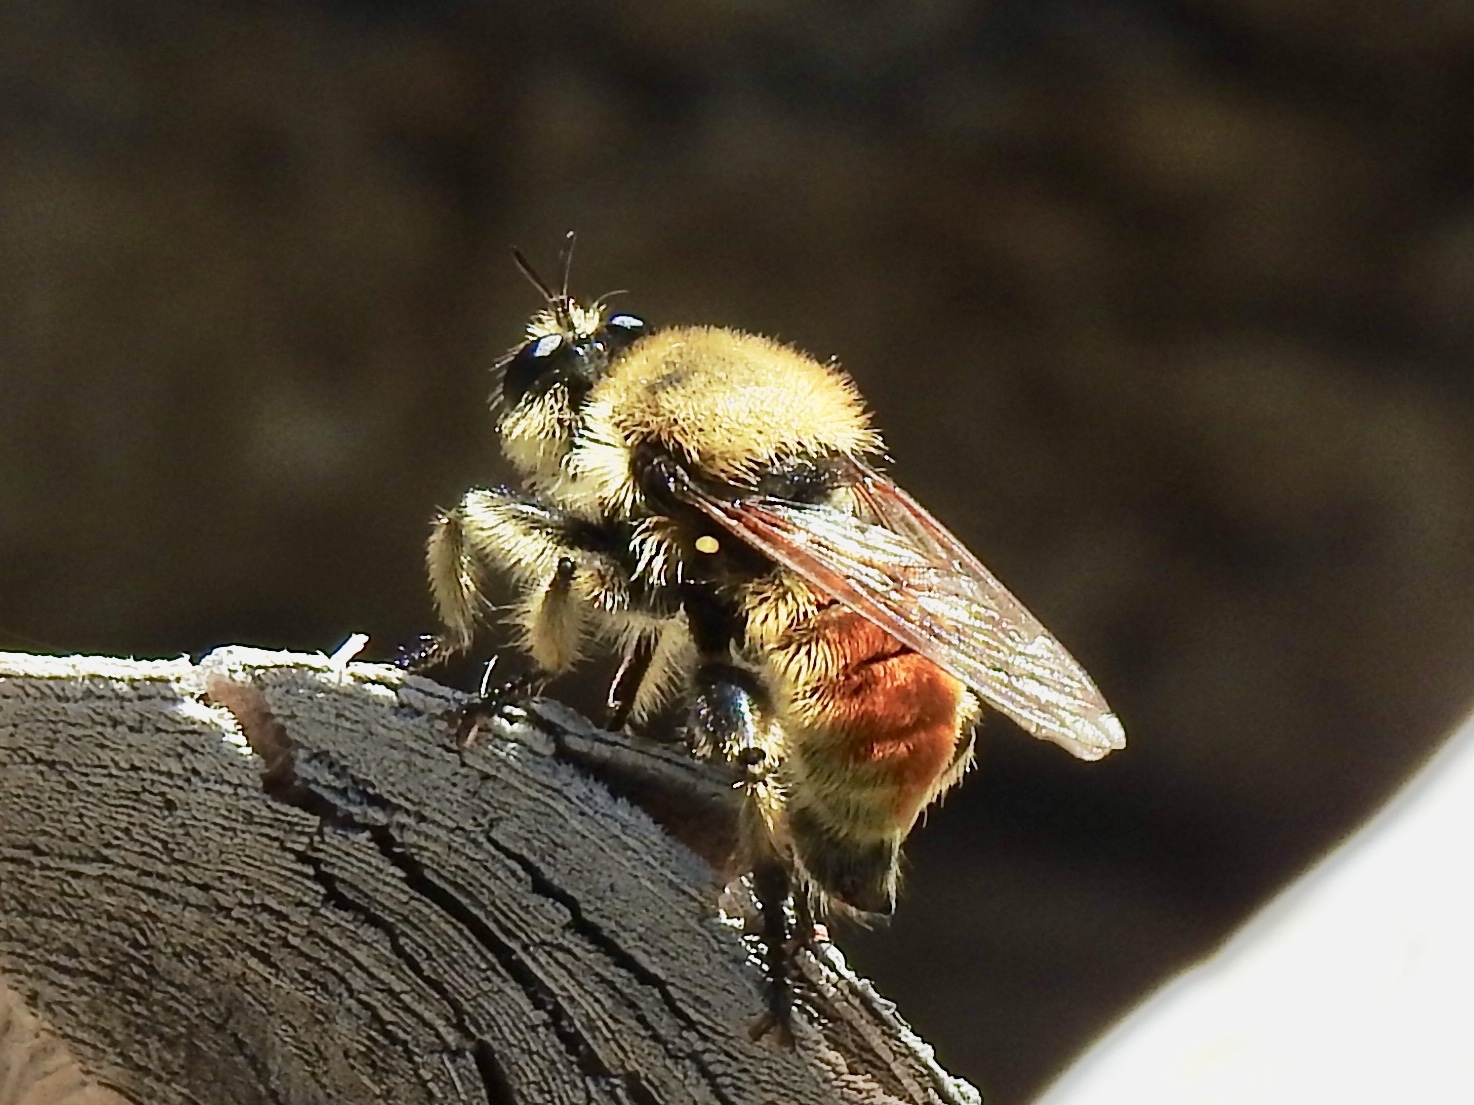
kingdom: Animalia
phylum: Arthropoda
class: Insecta
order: Diptera
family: Asilidae
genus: Laphria
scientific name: Laphria engelhardti
